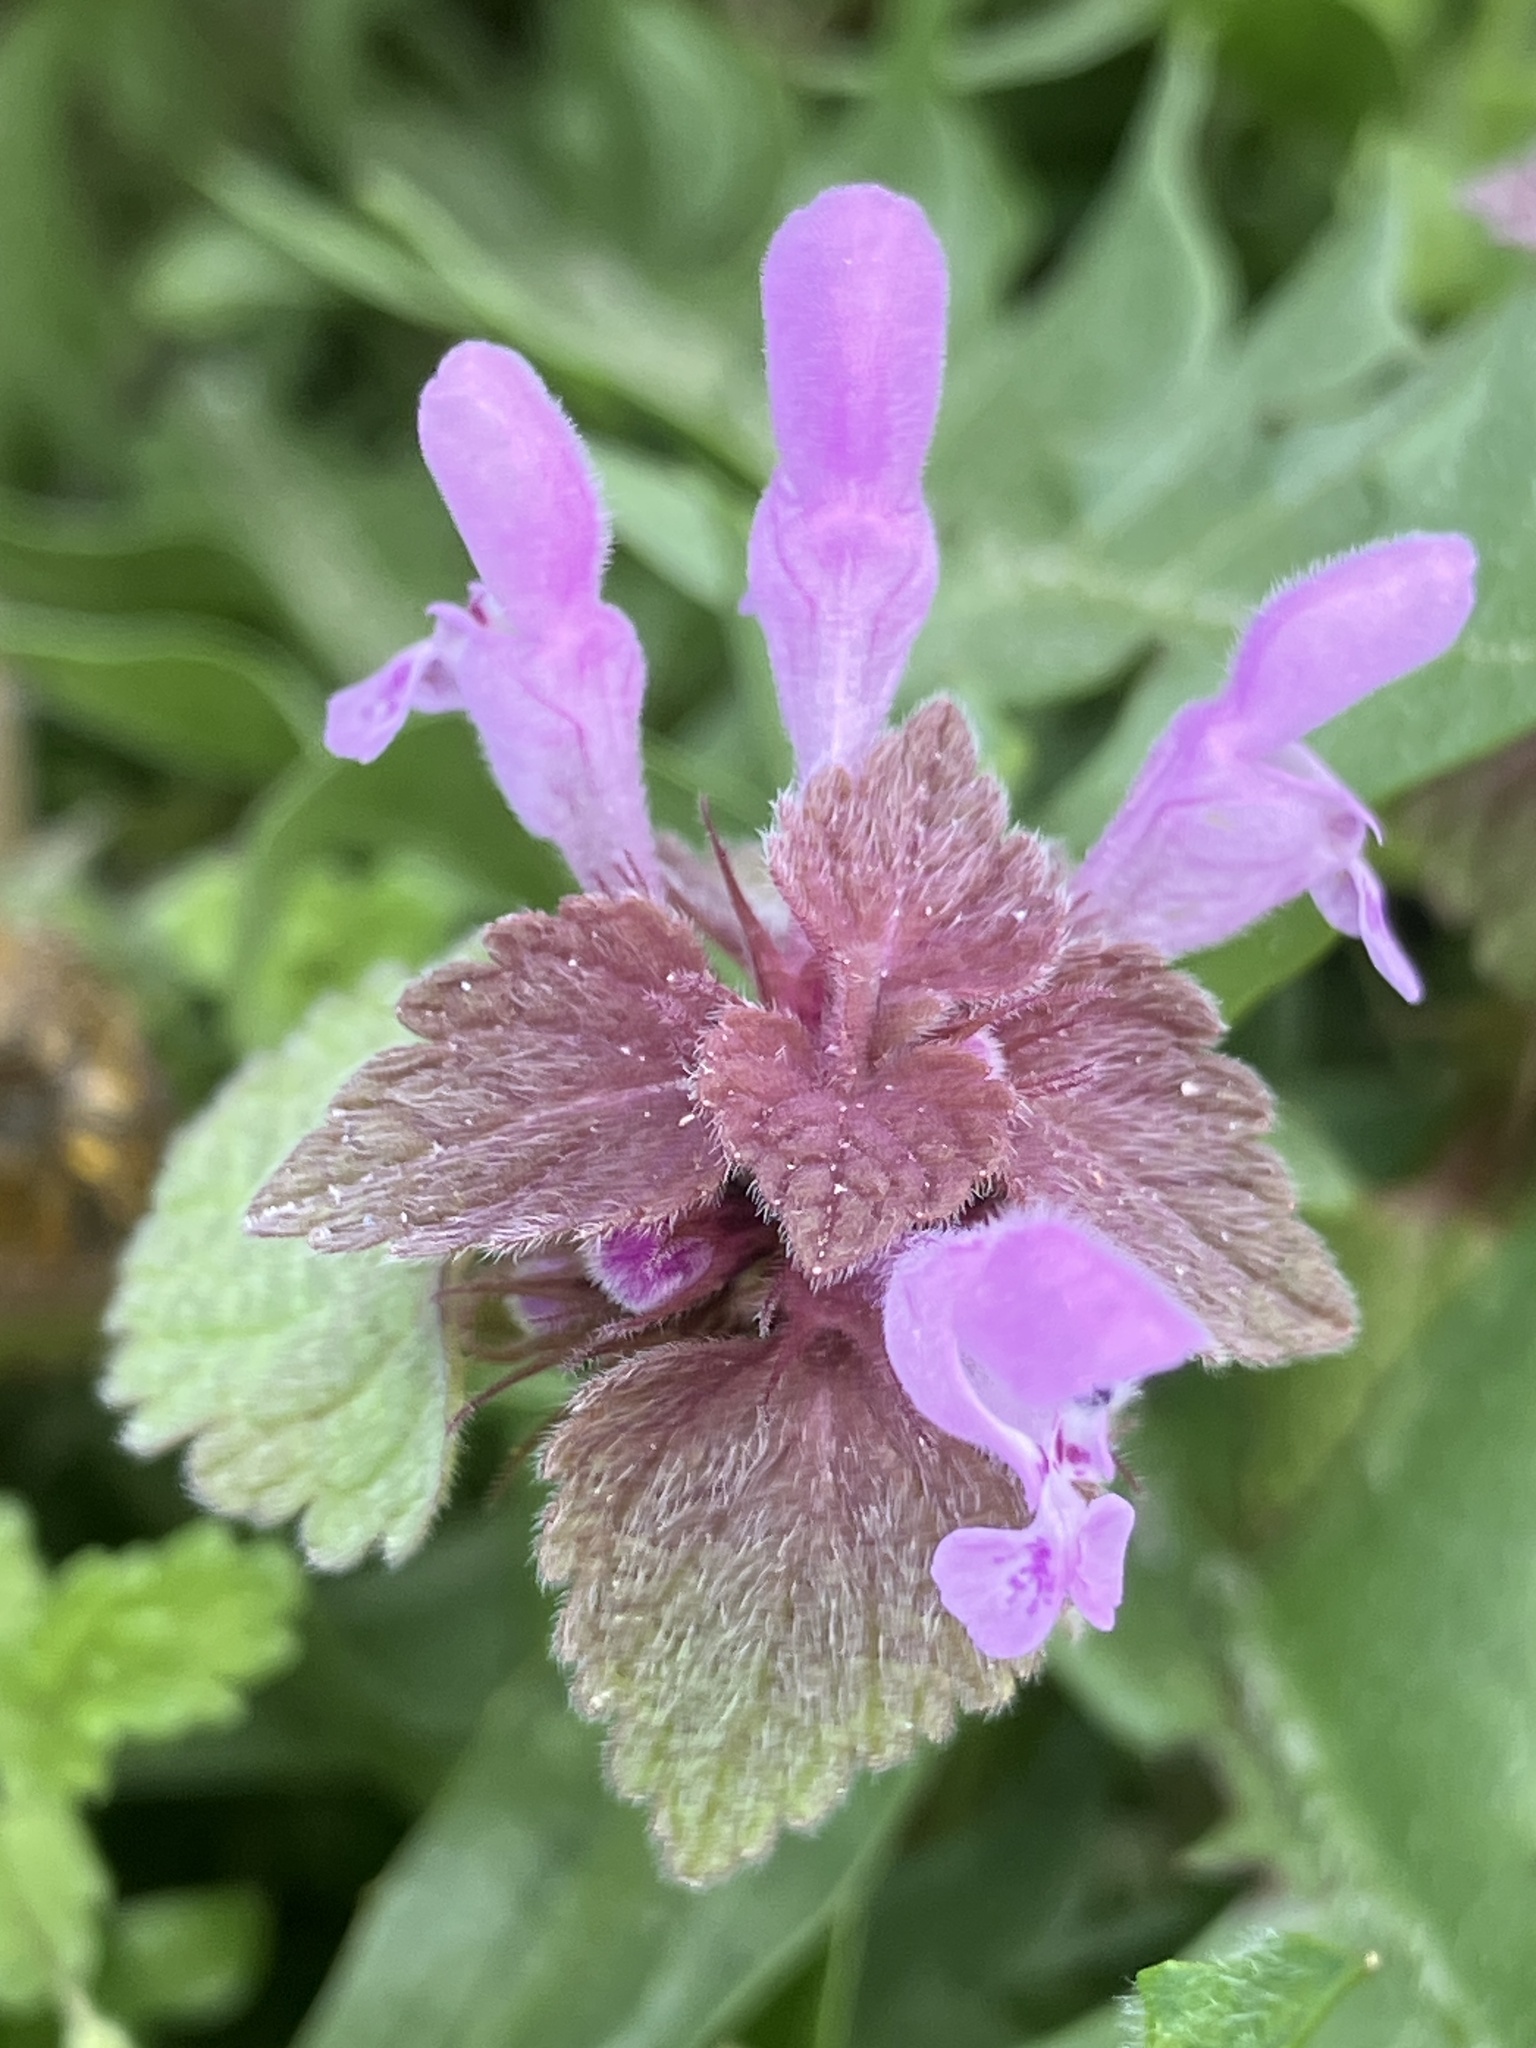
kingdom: Plantae
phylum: Tracheophyta
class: Magnoliopsida
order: Lamiales
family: Lamiaceae
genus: Lamium
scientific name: Lamium purpureum
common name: Red dead-nettle
